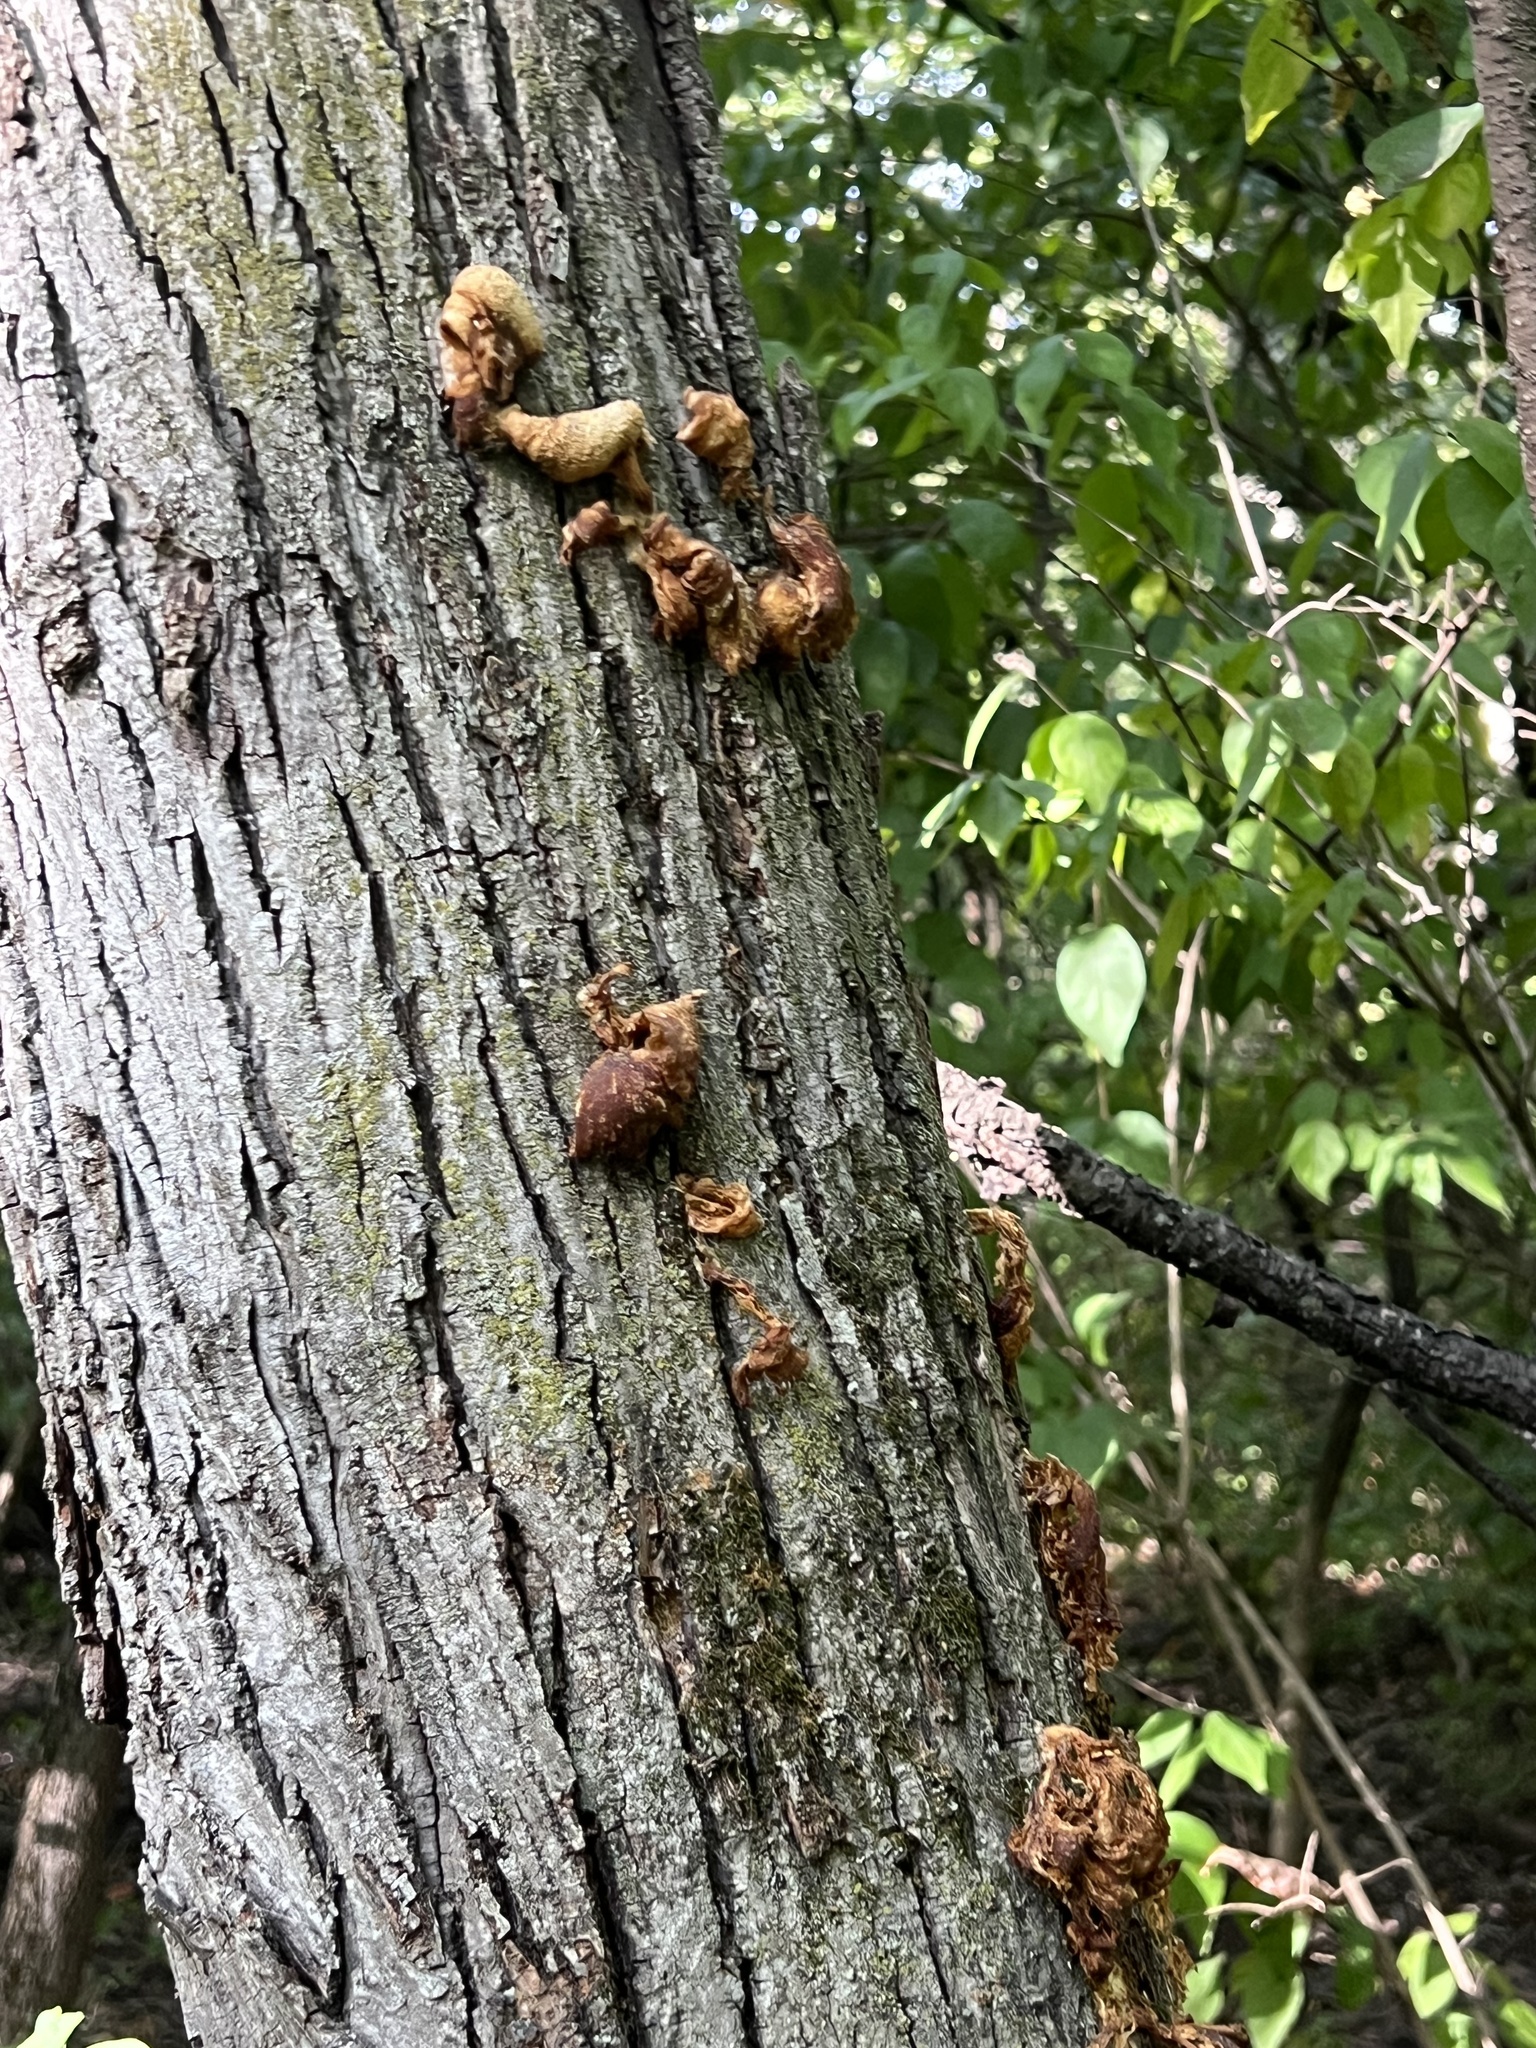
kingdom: Fungi
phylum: Basidiomycota
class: Agaricomycetes
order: Agaricales
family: Pleurotaceae
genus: Pleurotus
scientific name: Pleurotus citrinopileatus
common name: Golden oyster mushroom
